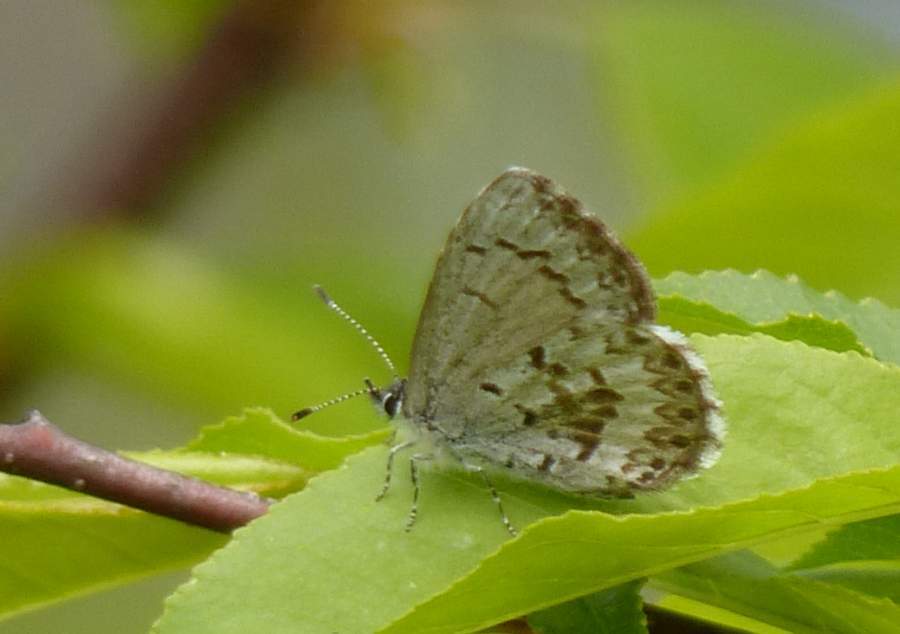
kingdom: Animalia
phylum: Arthropoda
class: Insecta
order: Lepidoptera
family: Lycaenidae
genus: Celastrina
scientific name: Celastrina lucia
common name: Lucia azure
